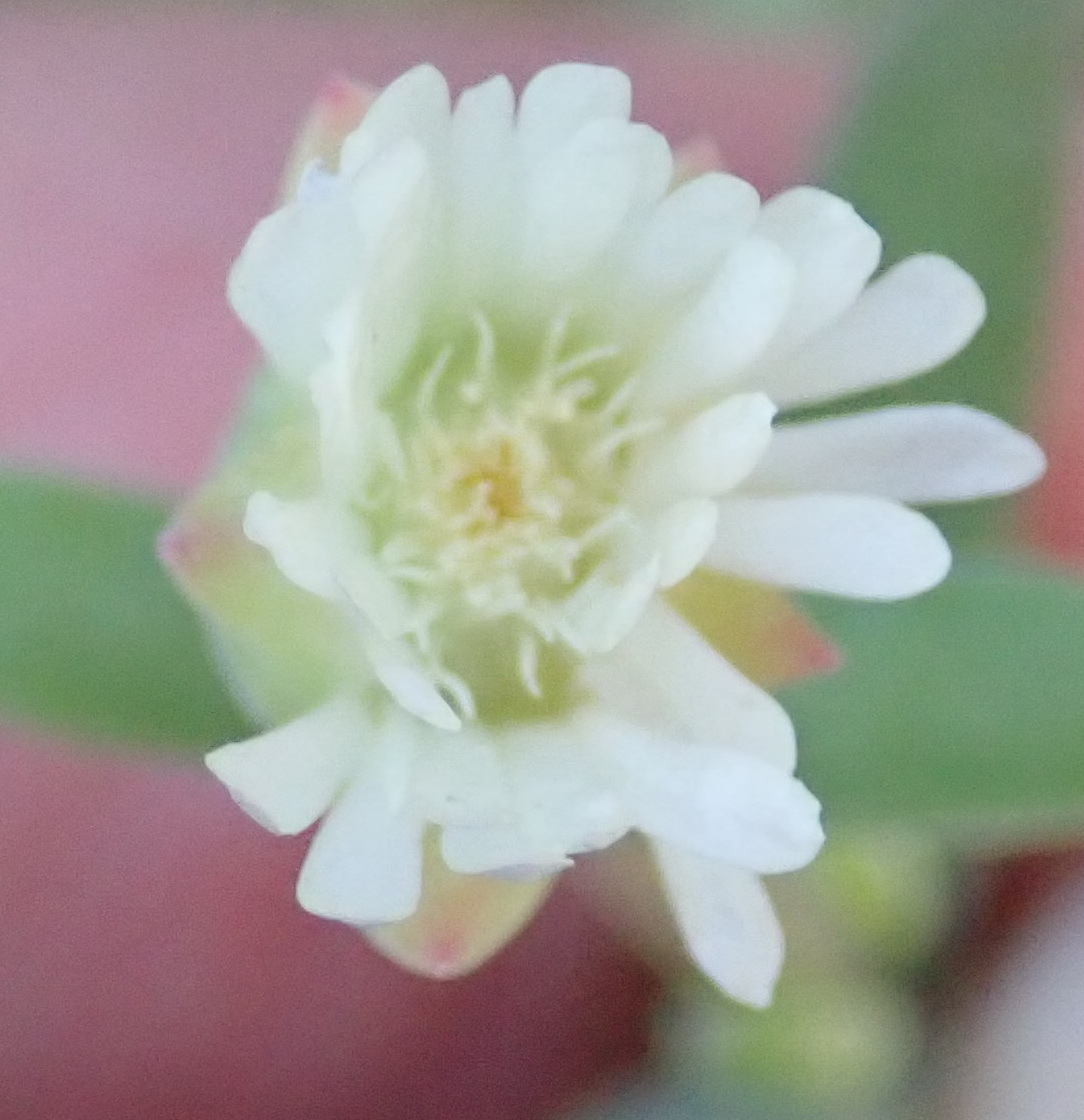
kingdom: Plantae
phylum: Tracheophyta
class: Magnoliopsida
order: Caryophyllales
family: Aizoaceae
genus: Delosperma
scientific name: Delosperma subincanum
